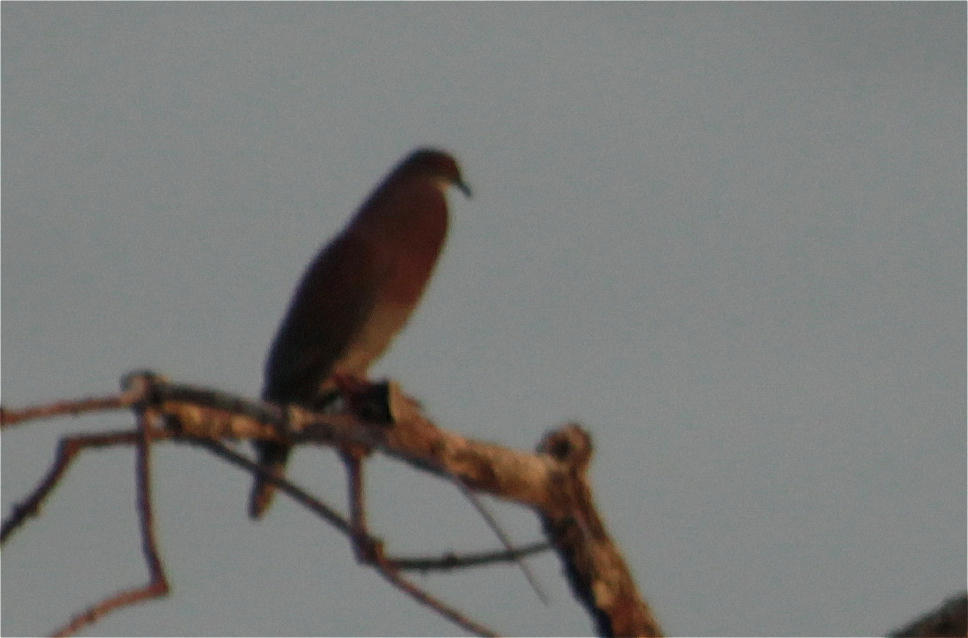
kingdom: Animalia
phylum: Chordata
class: Aves
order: Columbiformes
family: Columbidae
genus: Patagioenas
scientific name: Patagioenas cayennensis
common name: Pale-vented pigeon
